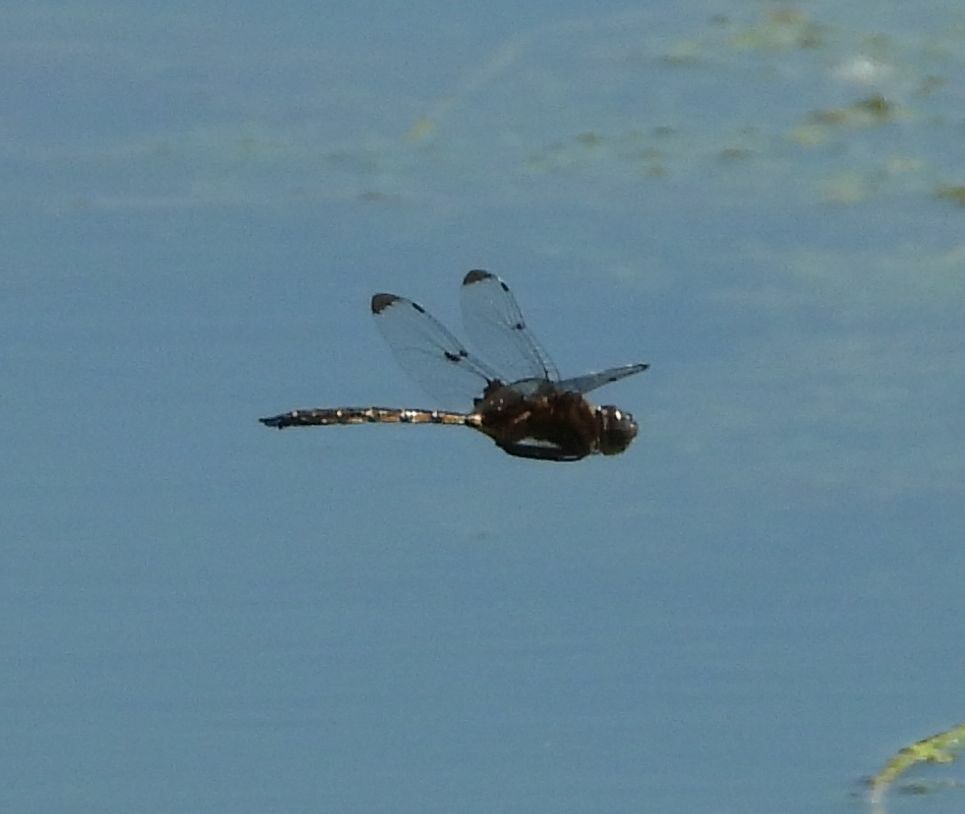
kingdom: Animalia
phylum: Arthropoda
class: Insecta
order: Odonata
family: Corduliidae
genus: Epitheca
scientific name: Epitheca princeps
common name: Prince baskettail
